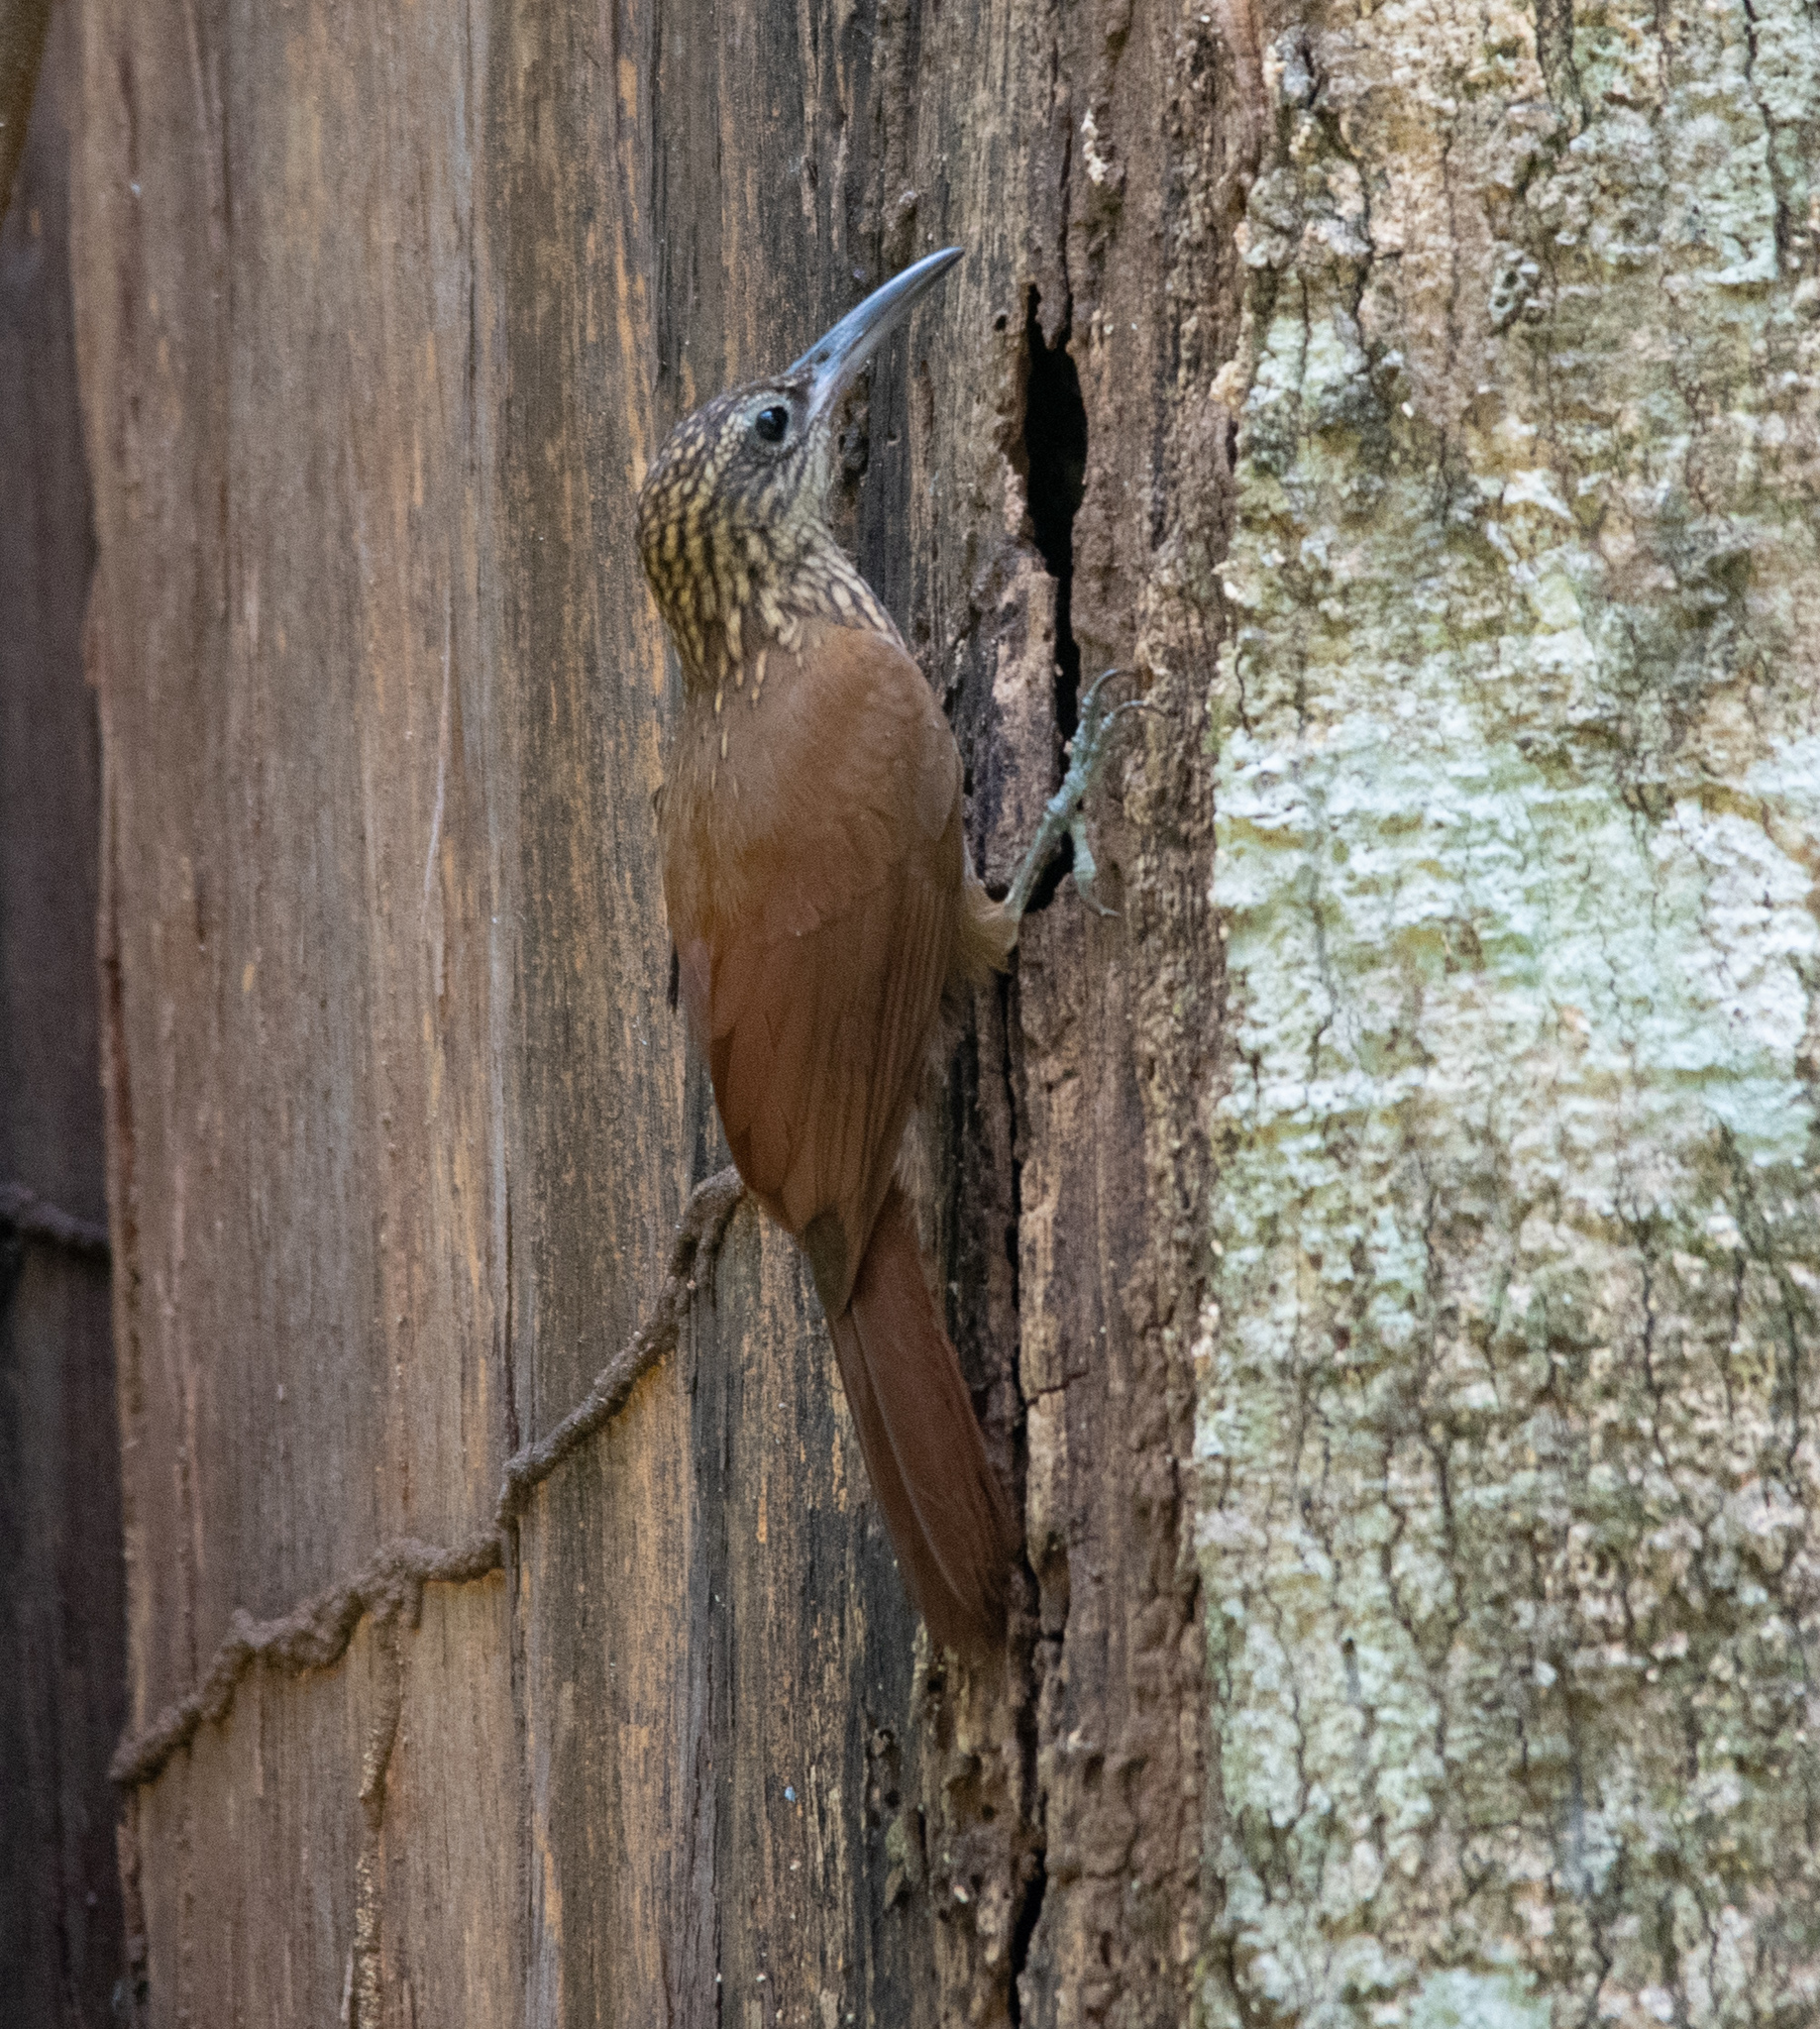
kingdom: Animalia
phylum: Chordata
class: Aves
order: Passeriformes
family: Furnariidae
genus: Xiphorhynchus
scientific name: Xiphorhynchus susurrans
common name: Cocoa woodcreeper
